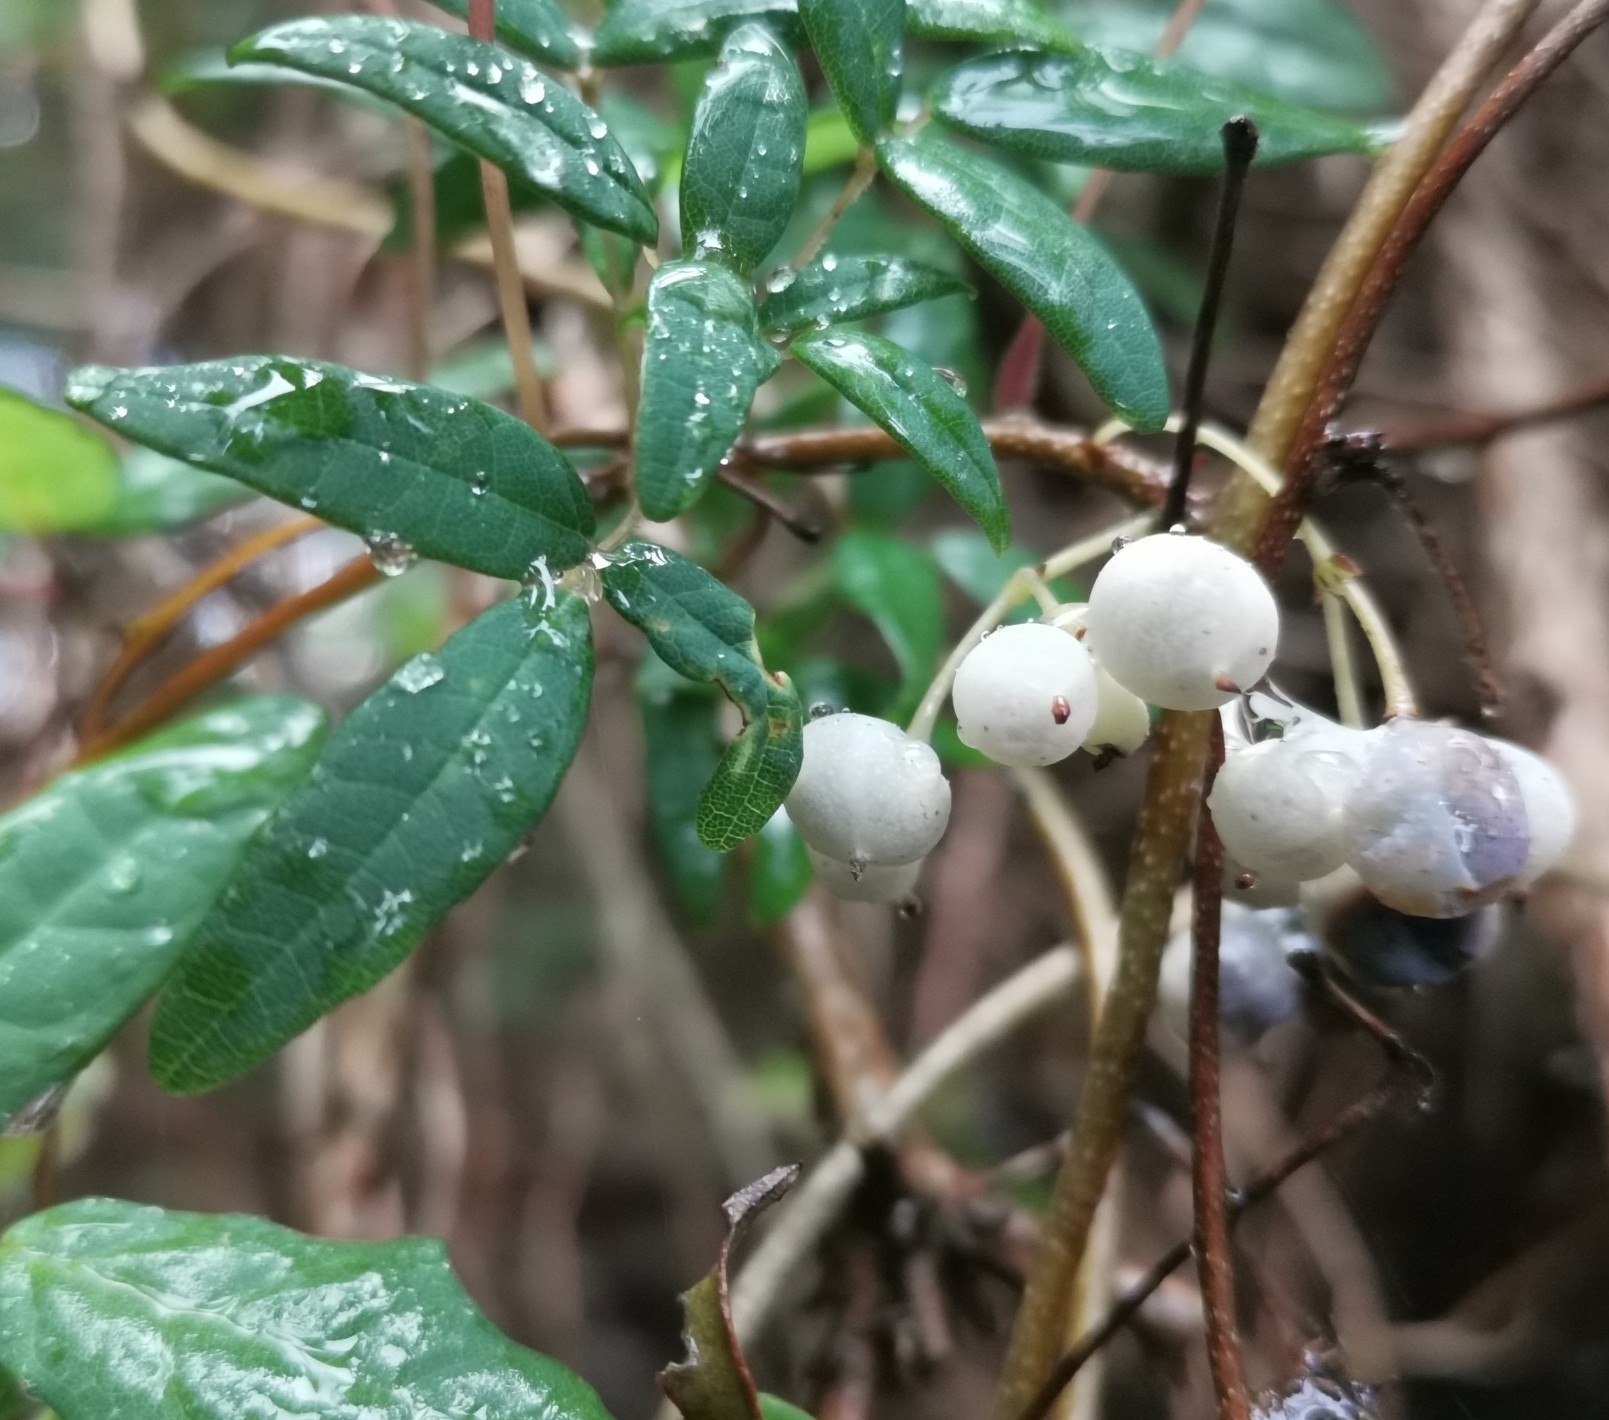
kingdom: Plantae
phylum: Tracheophyta
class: Magnoliopsida
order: Ranunculales
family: Lardizabalaceae
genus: Boquila
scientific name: Boquila trifoliolata
